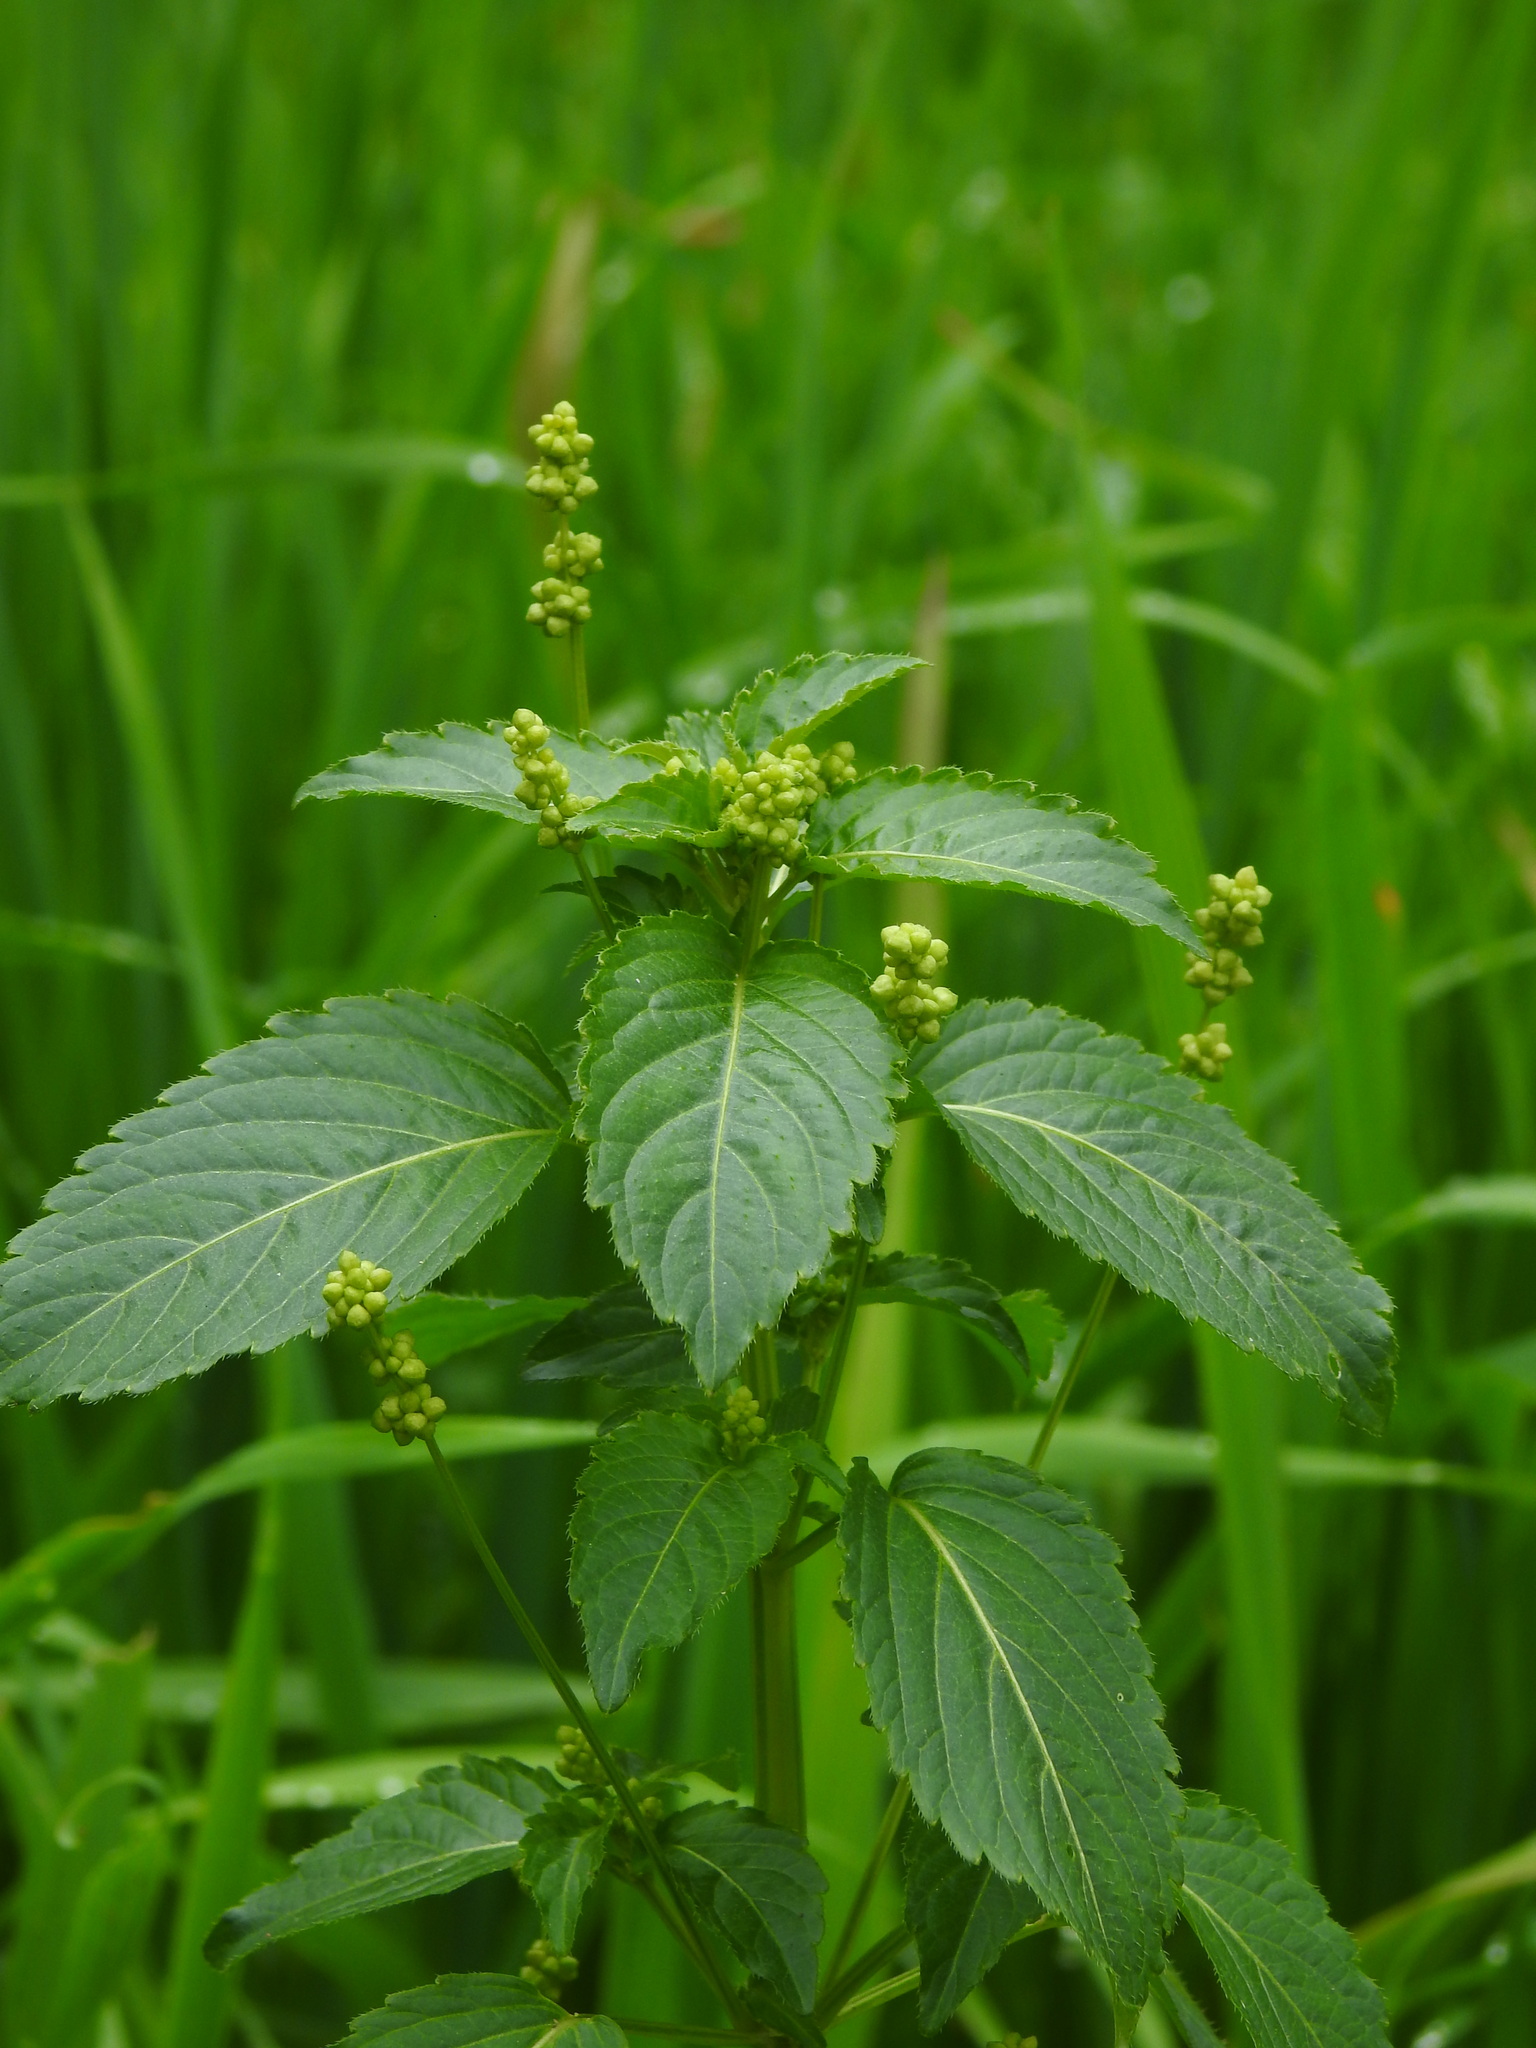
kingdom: Plantae
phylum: Tracheophyta
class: Magnoliopsida
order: Malpighiales
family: Euphorbiaceae
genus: Mercurialis
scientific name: Mercurialis annua
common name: Annual mercury
